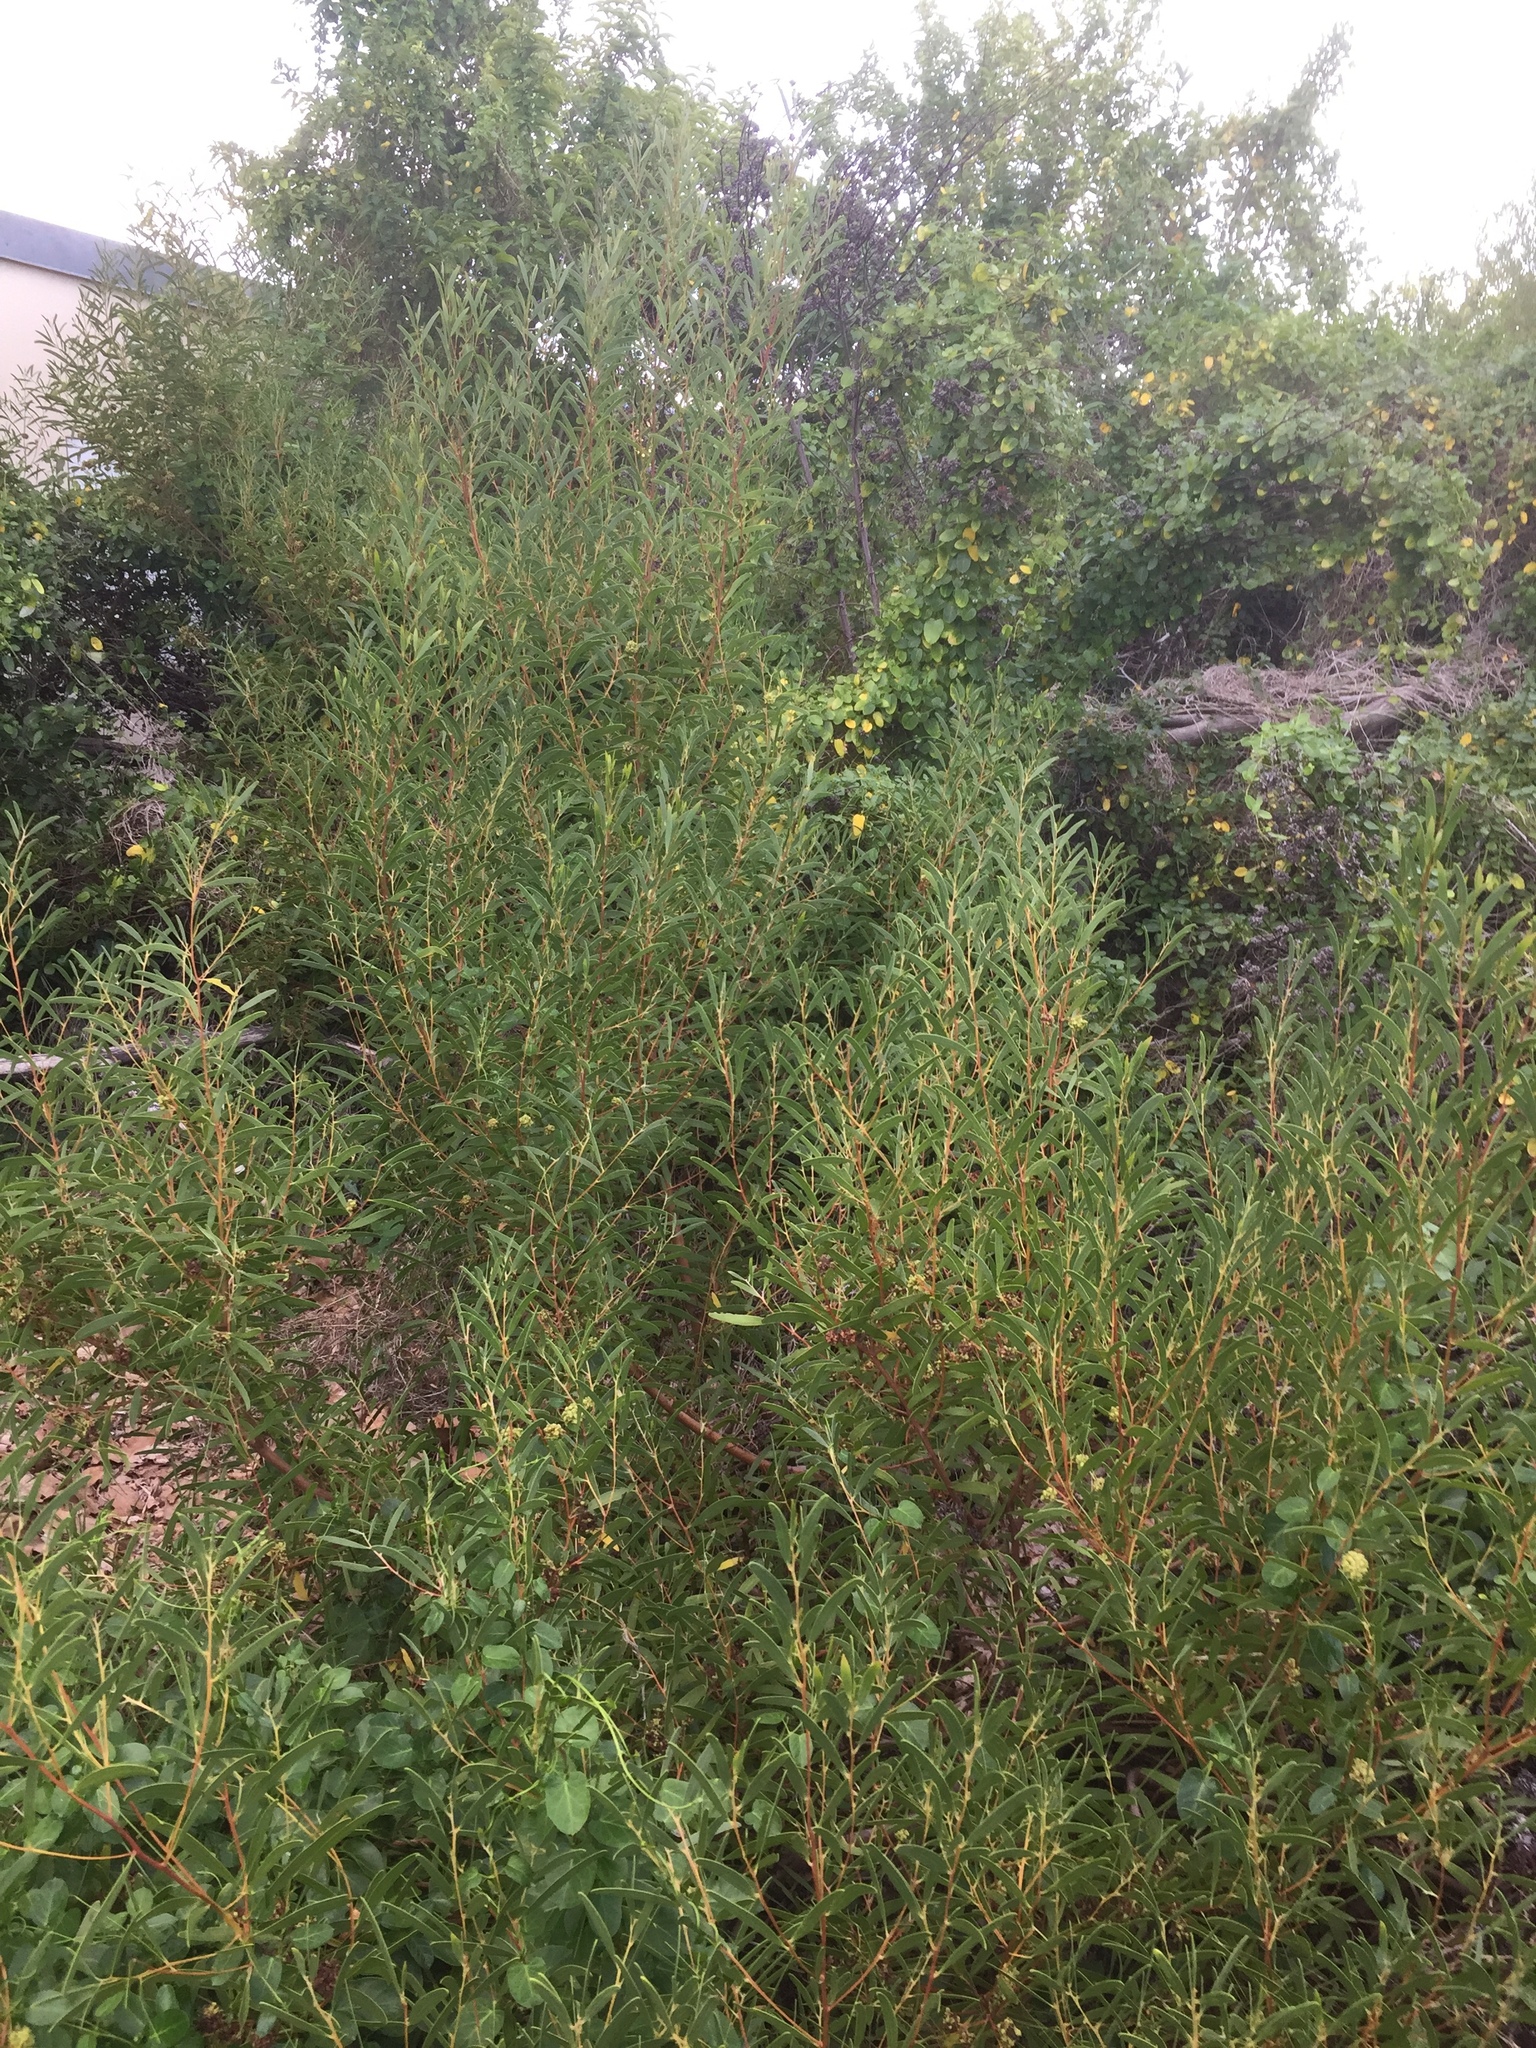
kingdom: Animalia
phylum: Arthropoda
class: Insecta
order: Diptera
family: Cecidomyiidae
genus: Dasineura
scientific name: Dasineura dielsi
